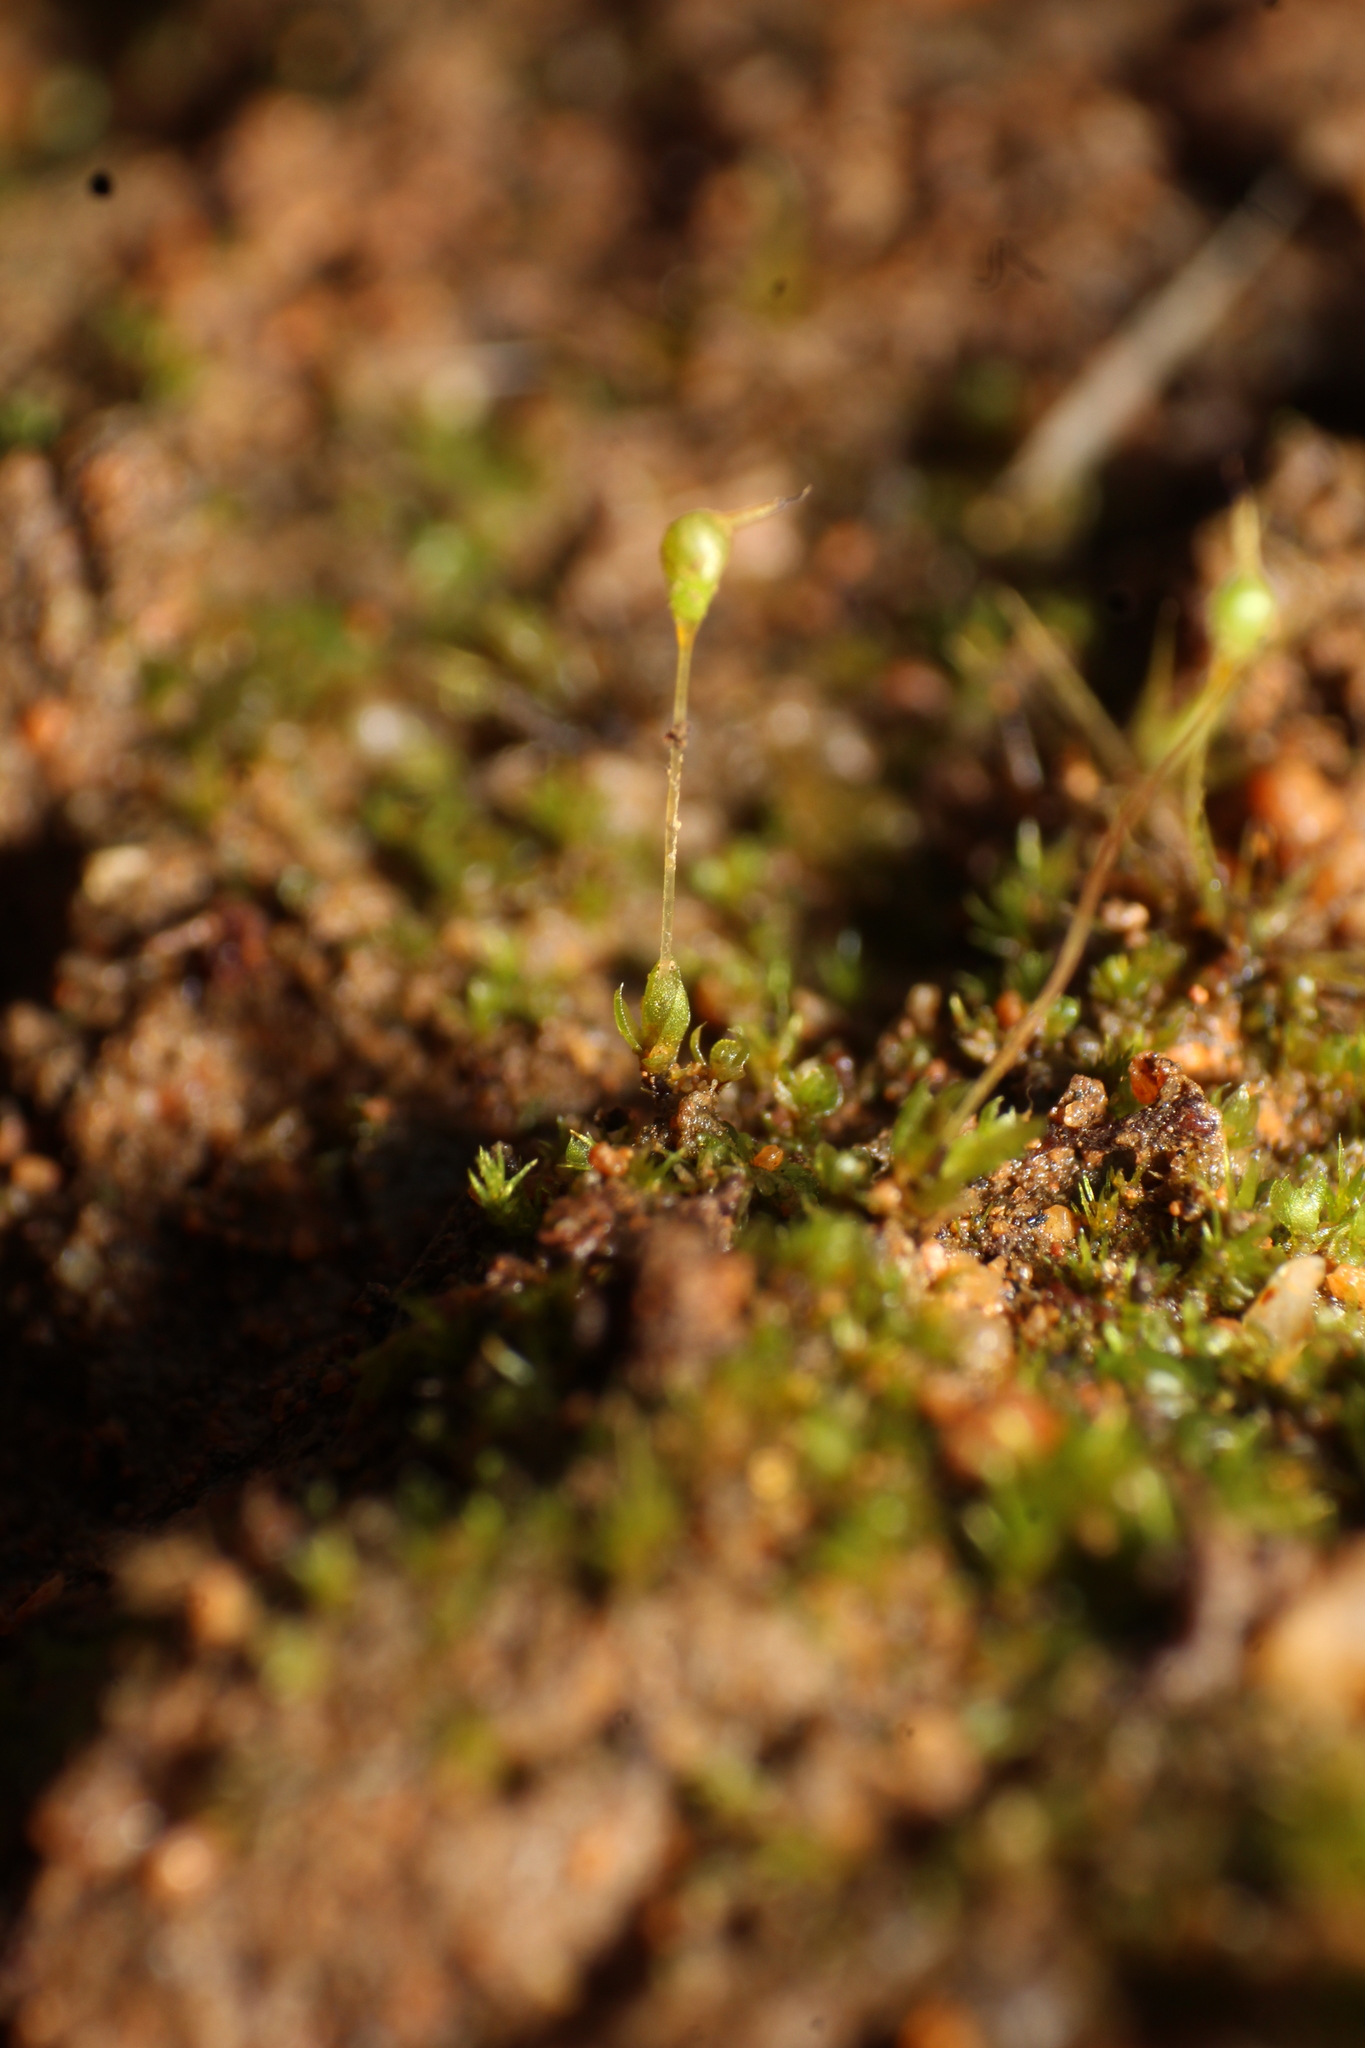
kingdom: Plantae
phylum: Bryophyta
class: Bryopsida
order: Funariales
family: Funariaceae
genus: Entosthodon
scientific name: Entosthodon subnudus
